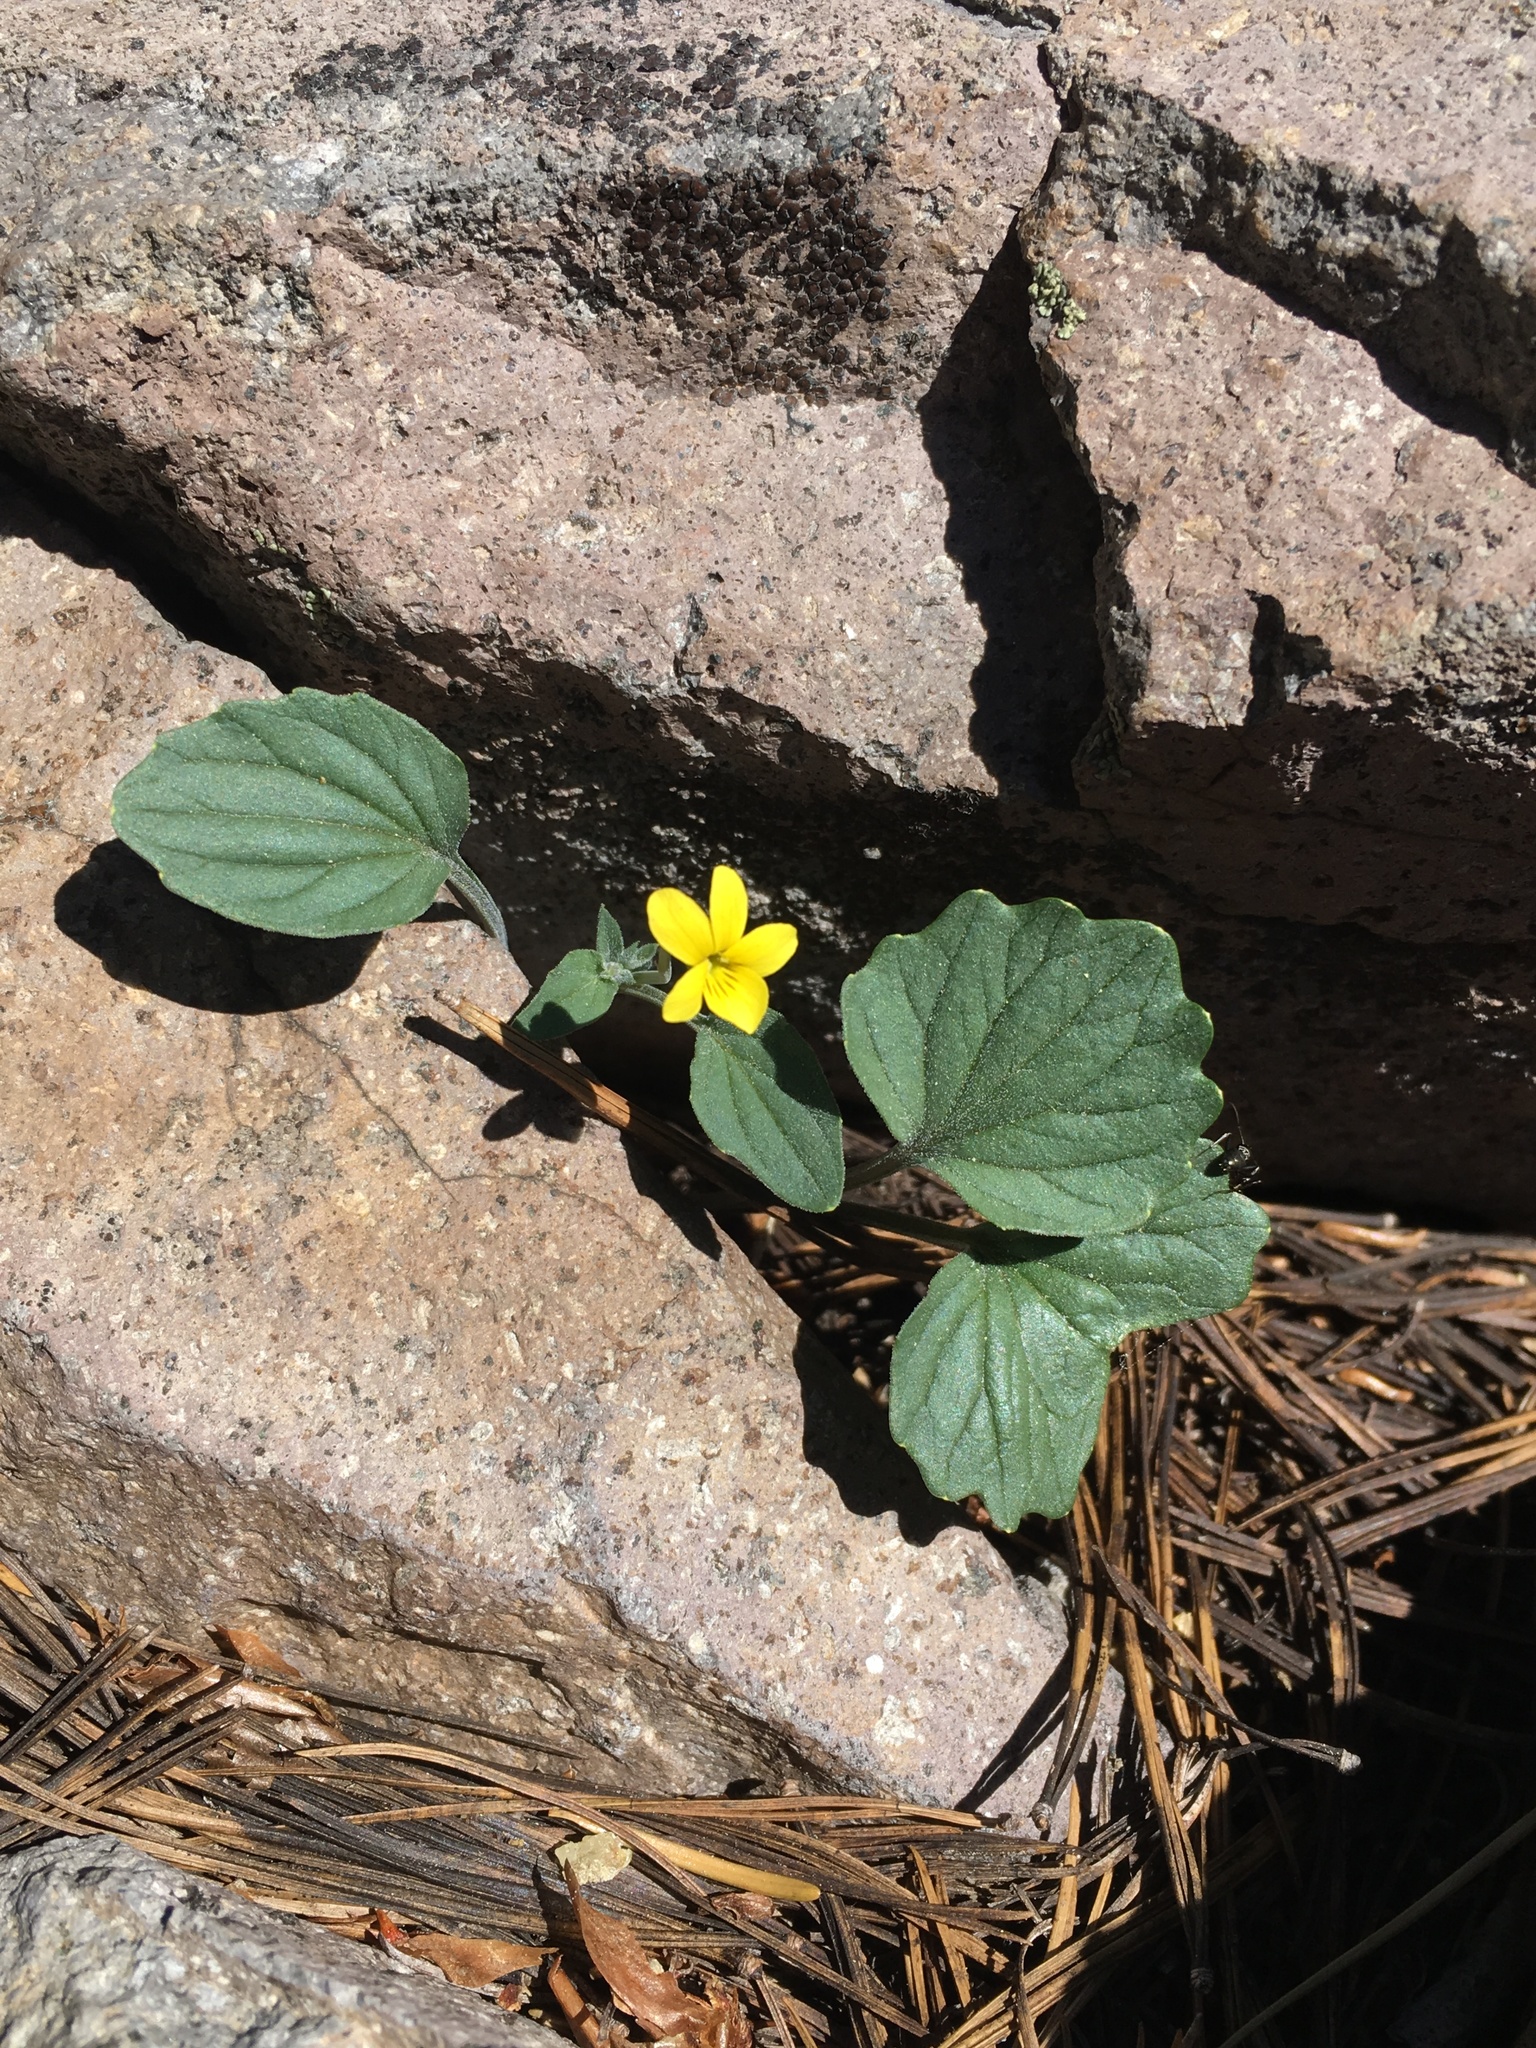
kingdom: Plantae
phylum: Tracheophyta
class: Magnoliopsida
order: Malpighiales
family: Violaceae
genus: Viola
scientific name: Viola purpurea
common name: Pine violet
